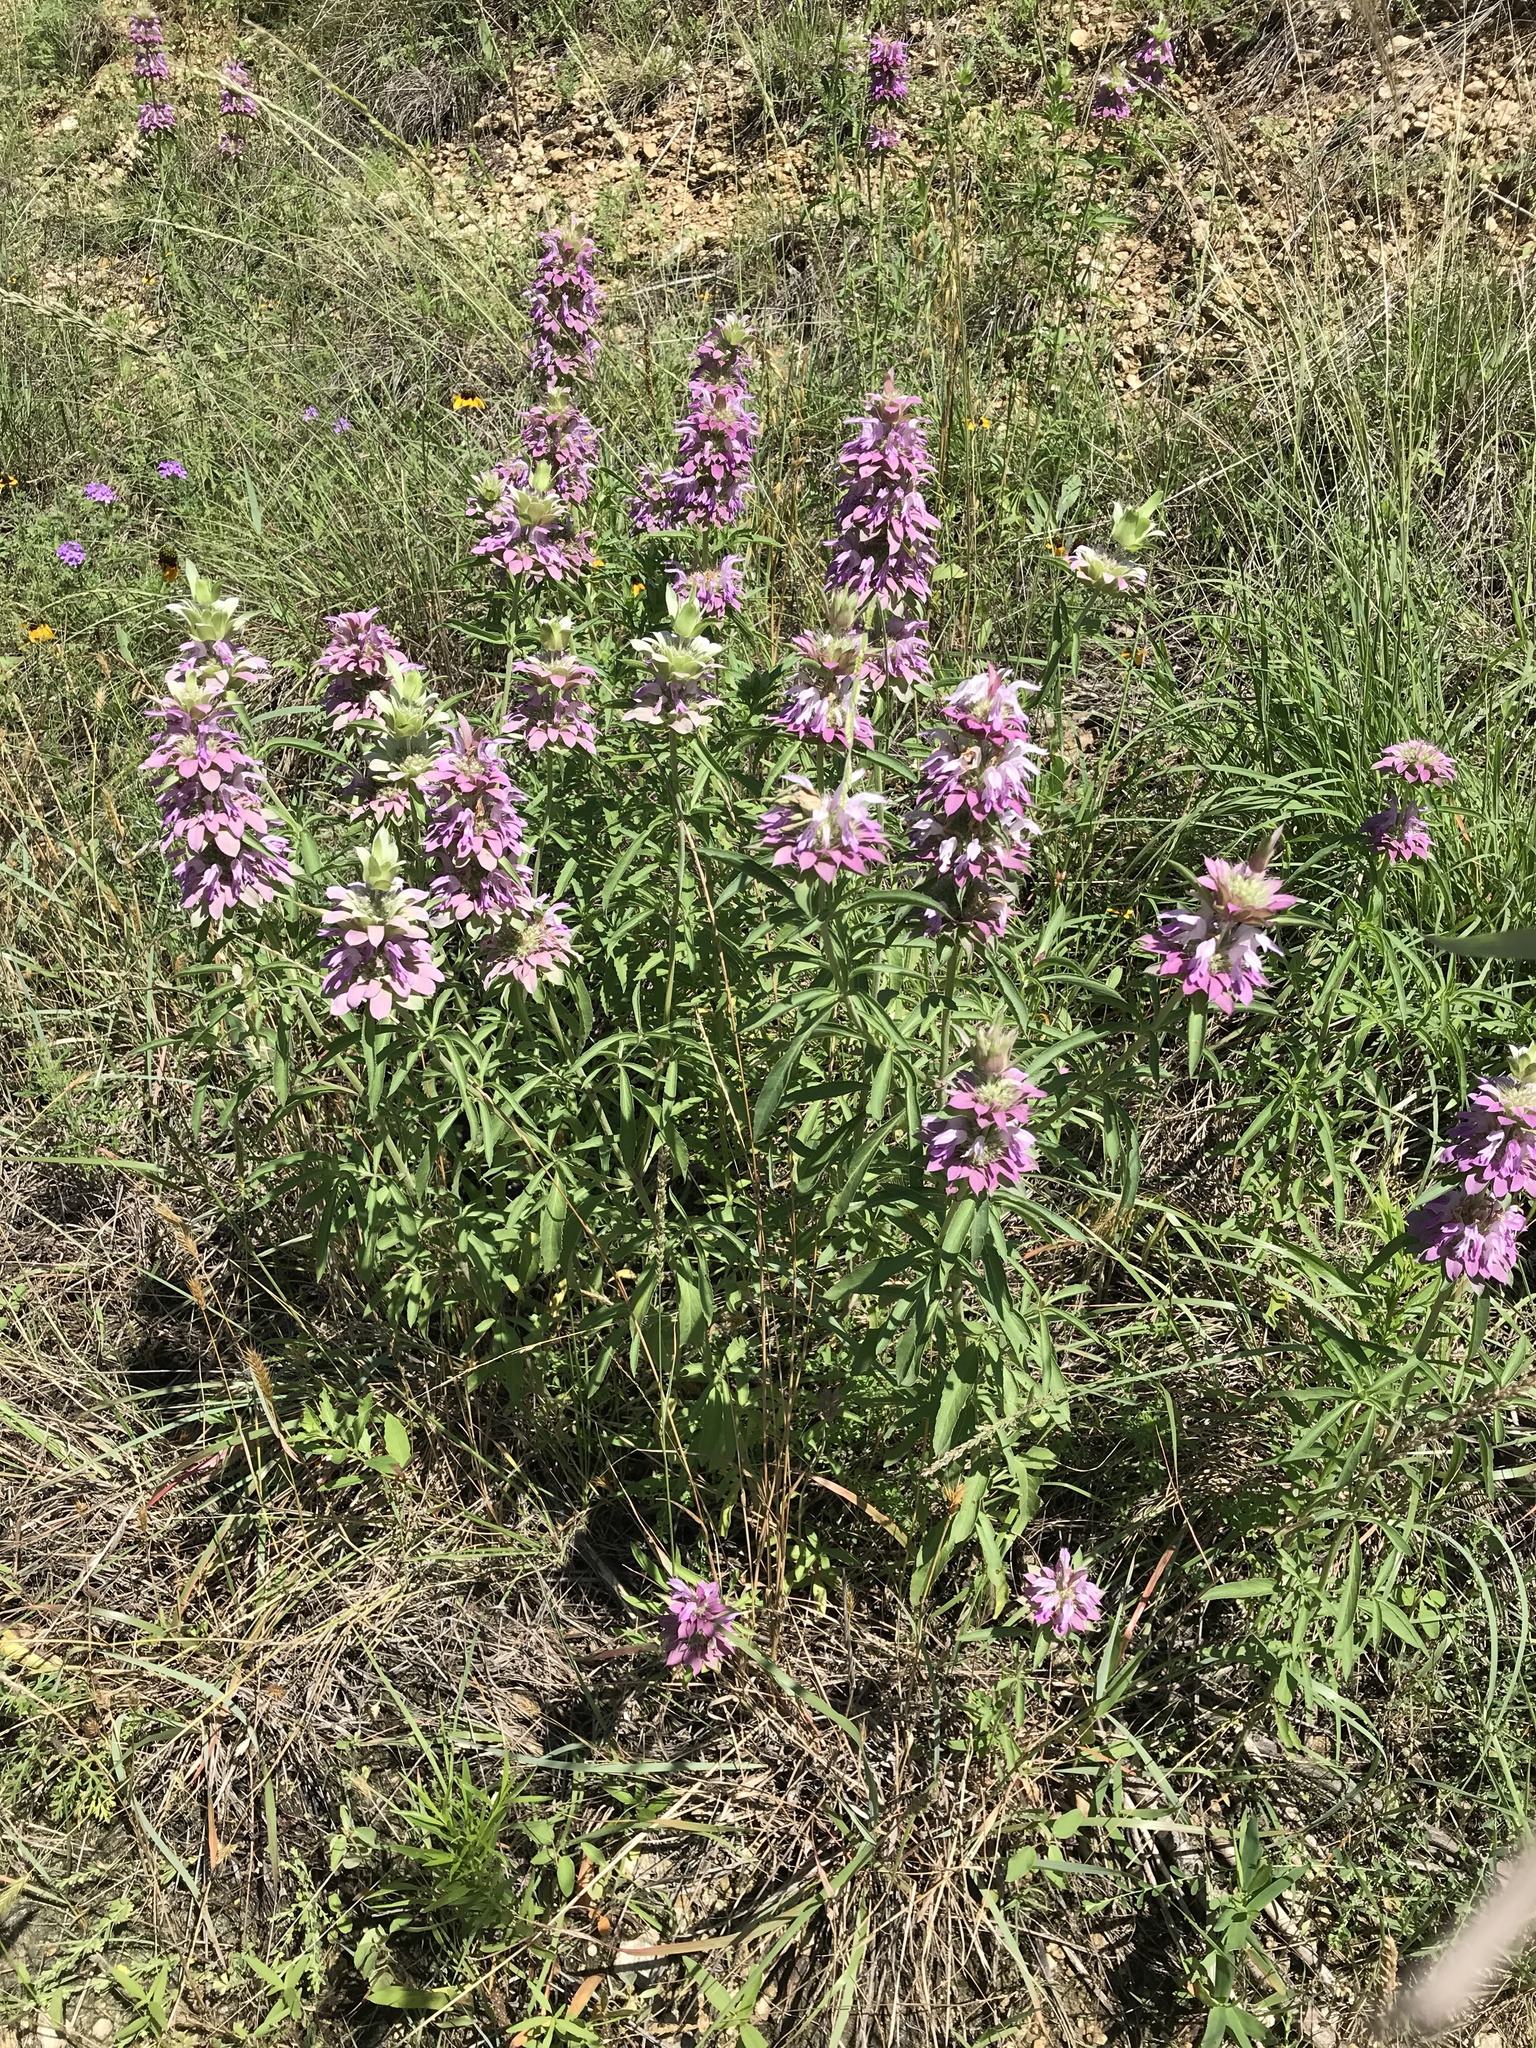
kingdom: Plantae
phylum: Tracheophyta
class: Magnoliopsida
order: Lamiales
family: Lamiaceae
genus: Monarda
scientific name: Monarda citriodora
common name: Lemon beebalm
